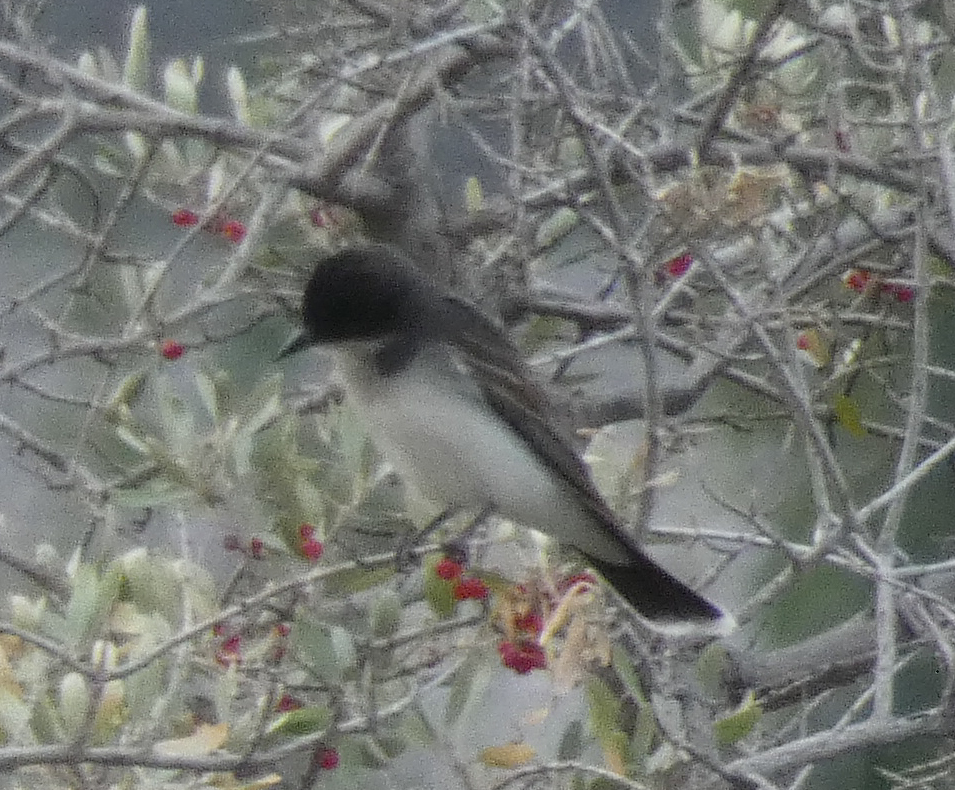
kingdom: Animalia
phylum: Chordata
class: Aves
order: Passeriformes
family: Tyrannidae
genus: Tyrannus
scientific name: Tyrannus tyrannus
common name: Eastern kingbird
